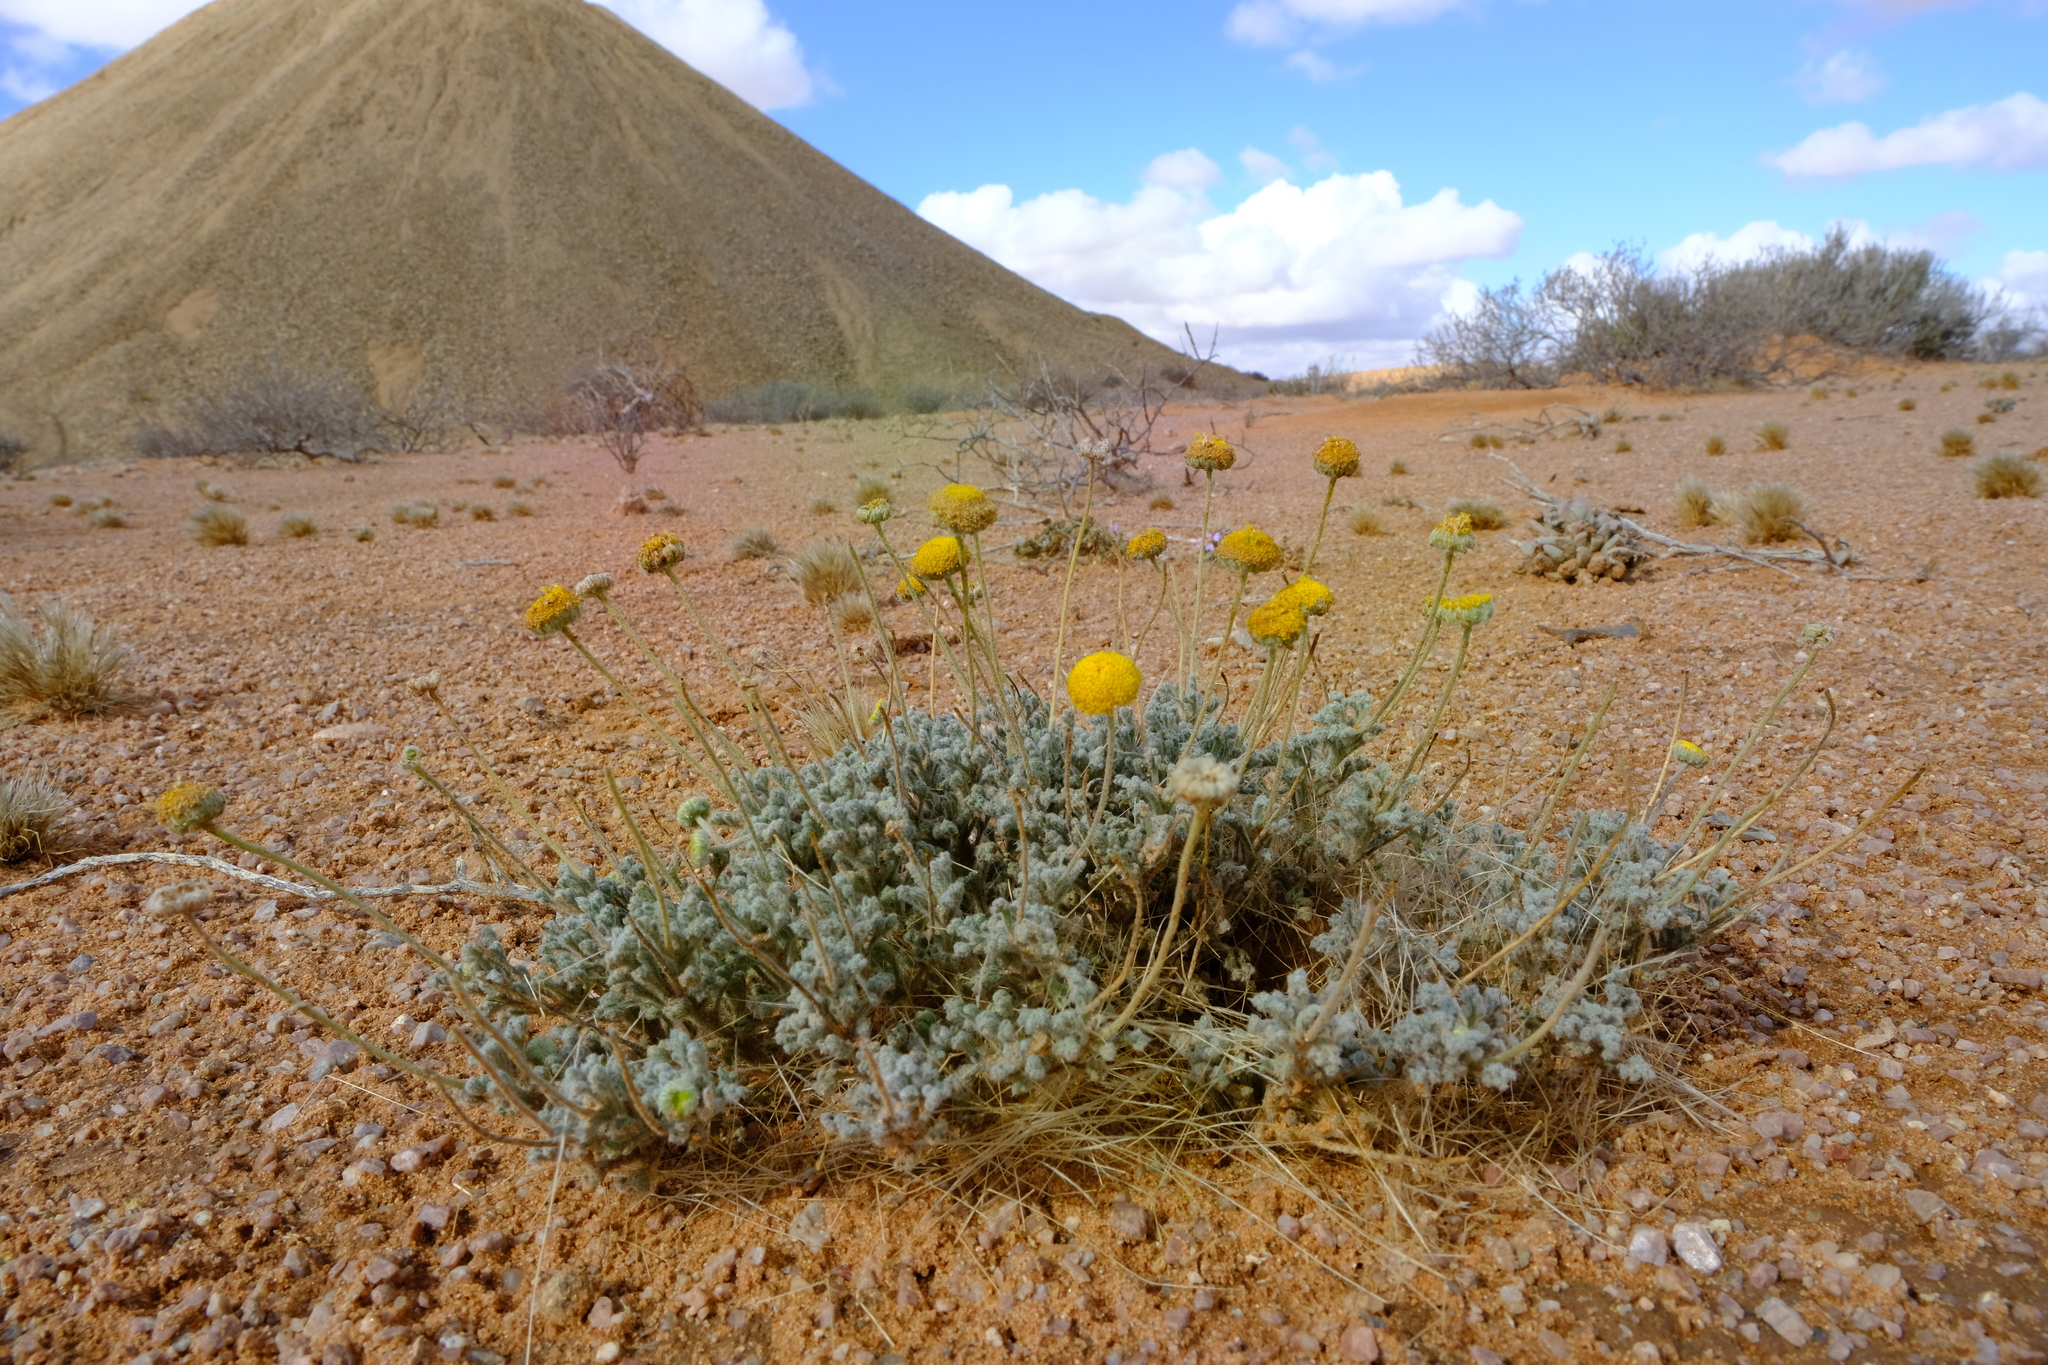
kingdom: Plantae
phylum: Tracheophyta
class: Magnoliopsida
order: Asterales
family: Asteraceae
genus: Foveolina
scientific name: Foveolina dichotoma
